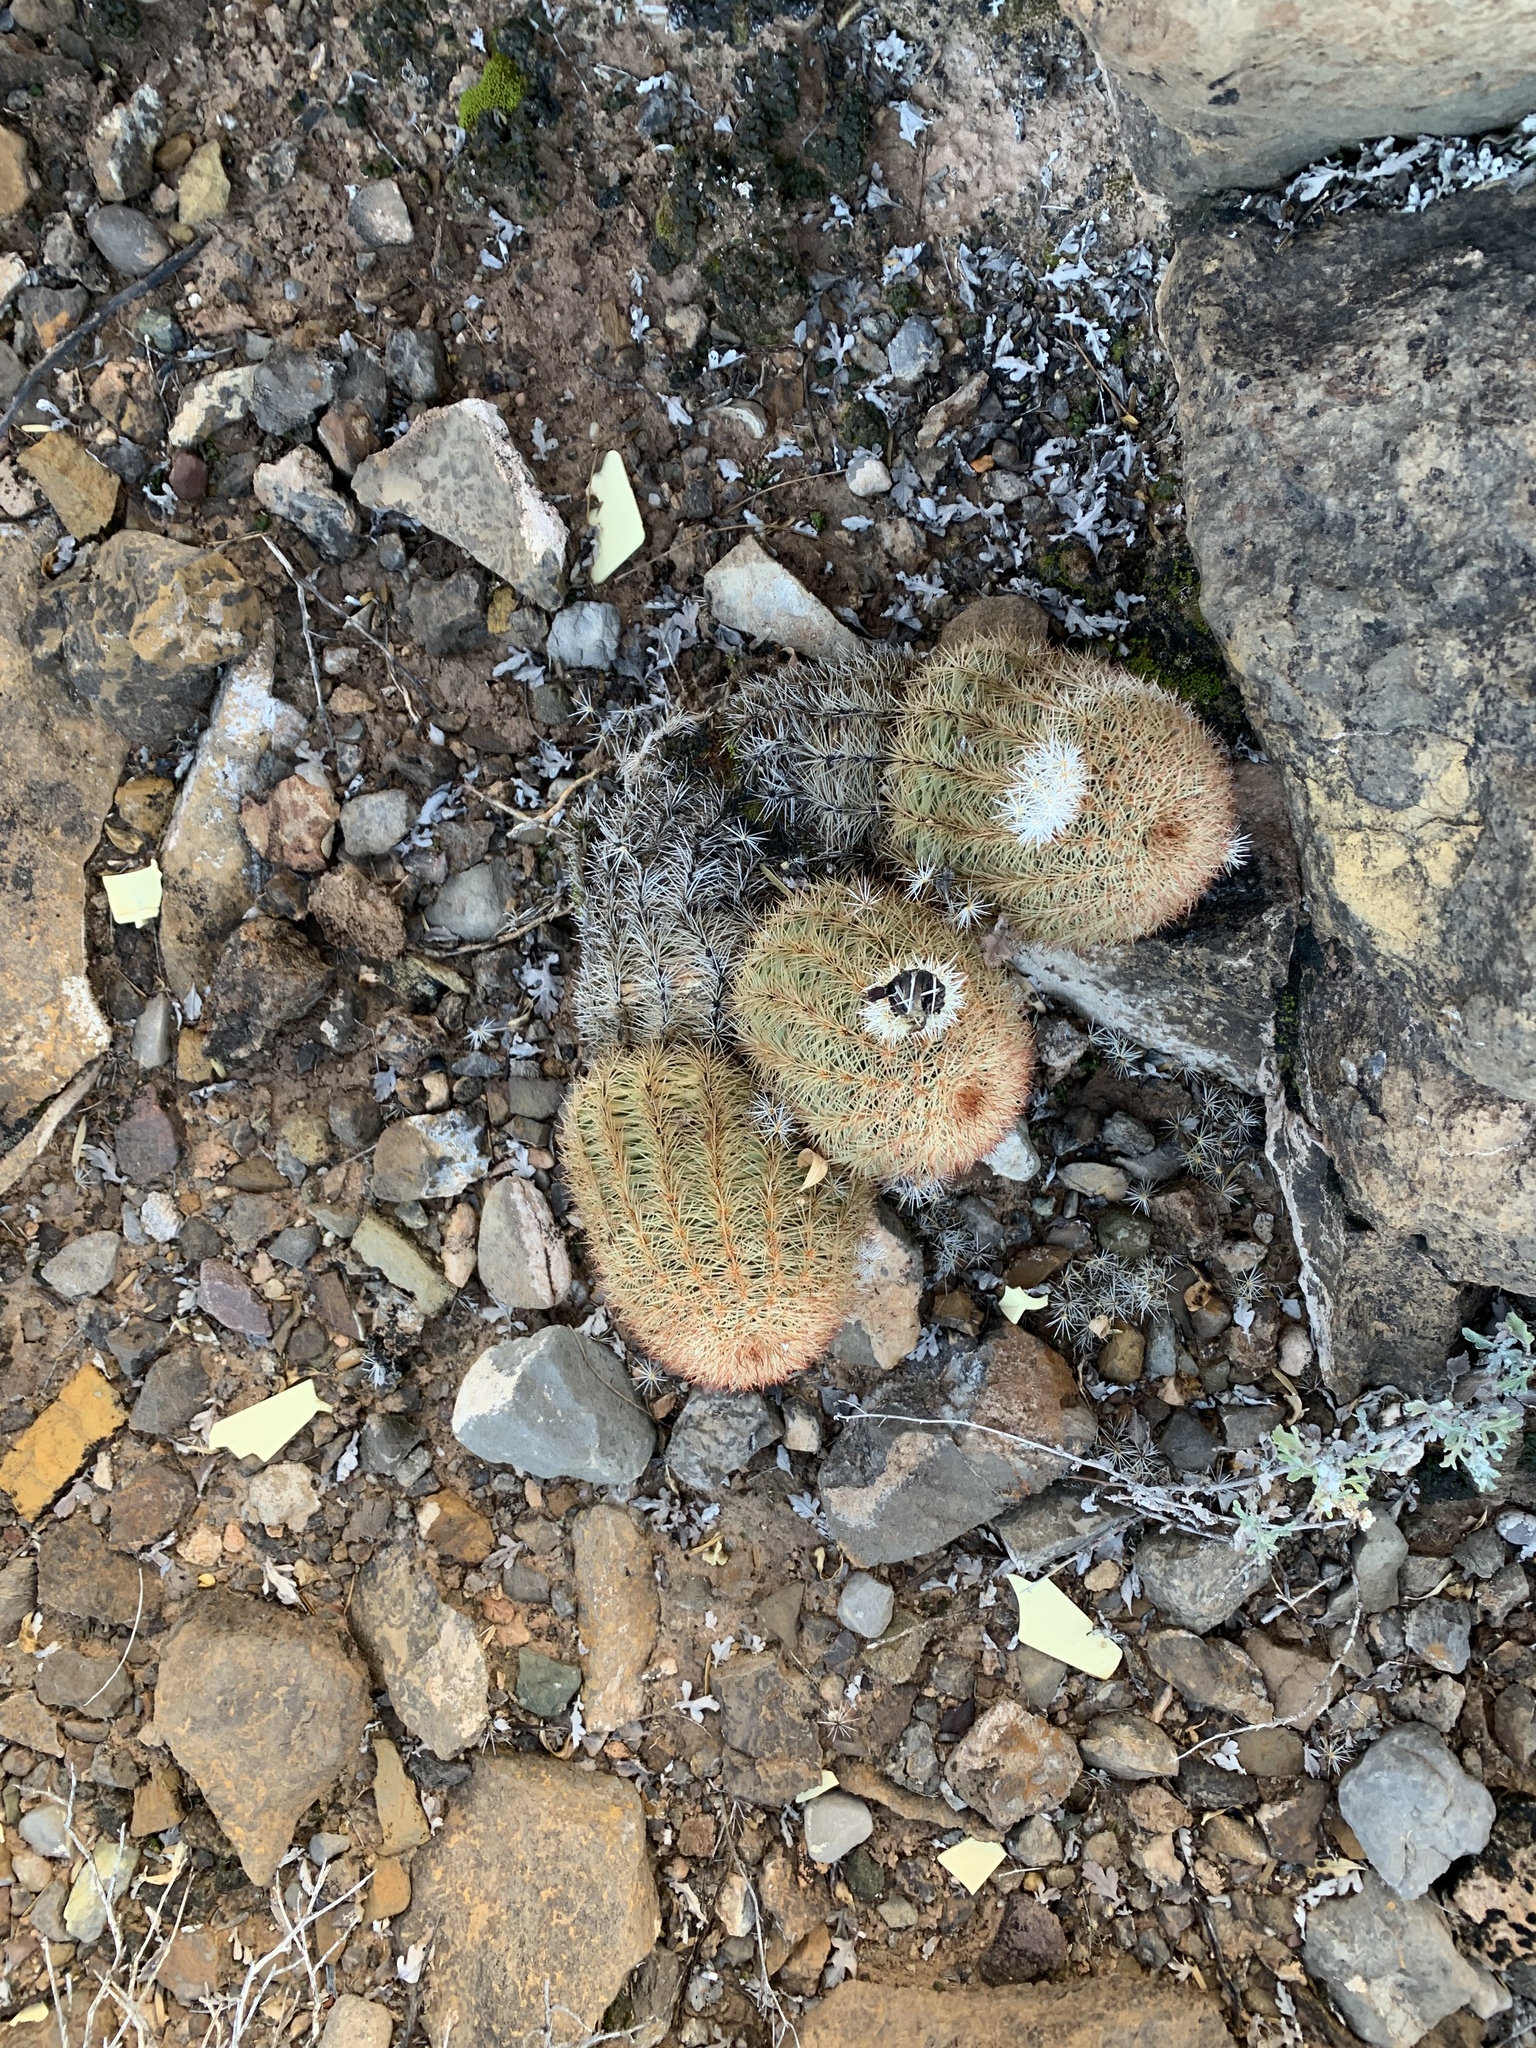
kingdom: Plantae
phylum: Tracheophyta
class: Magnoliopsida
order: Caryophyllales
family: Cactaceae
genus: Echinocereus
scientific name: Echinocereus dasyacanthus
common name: Spiny hedgehog cactus
